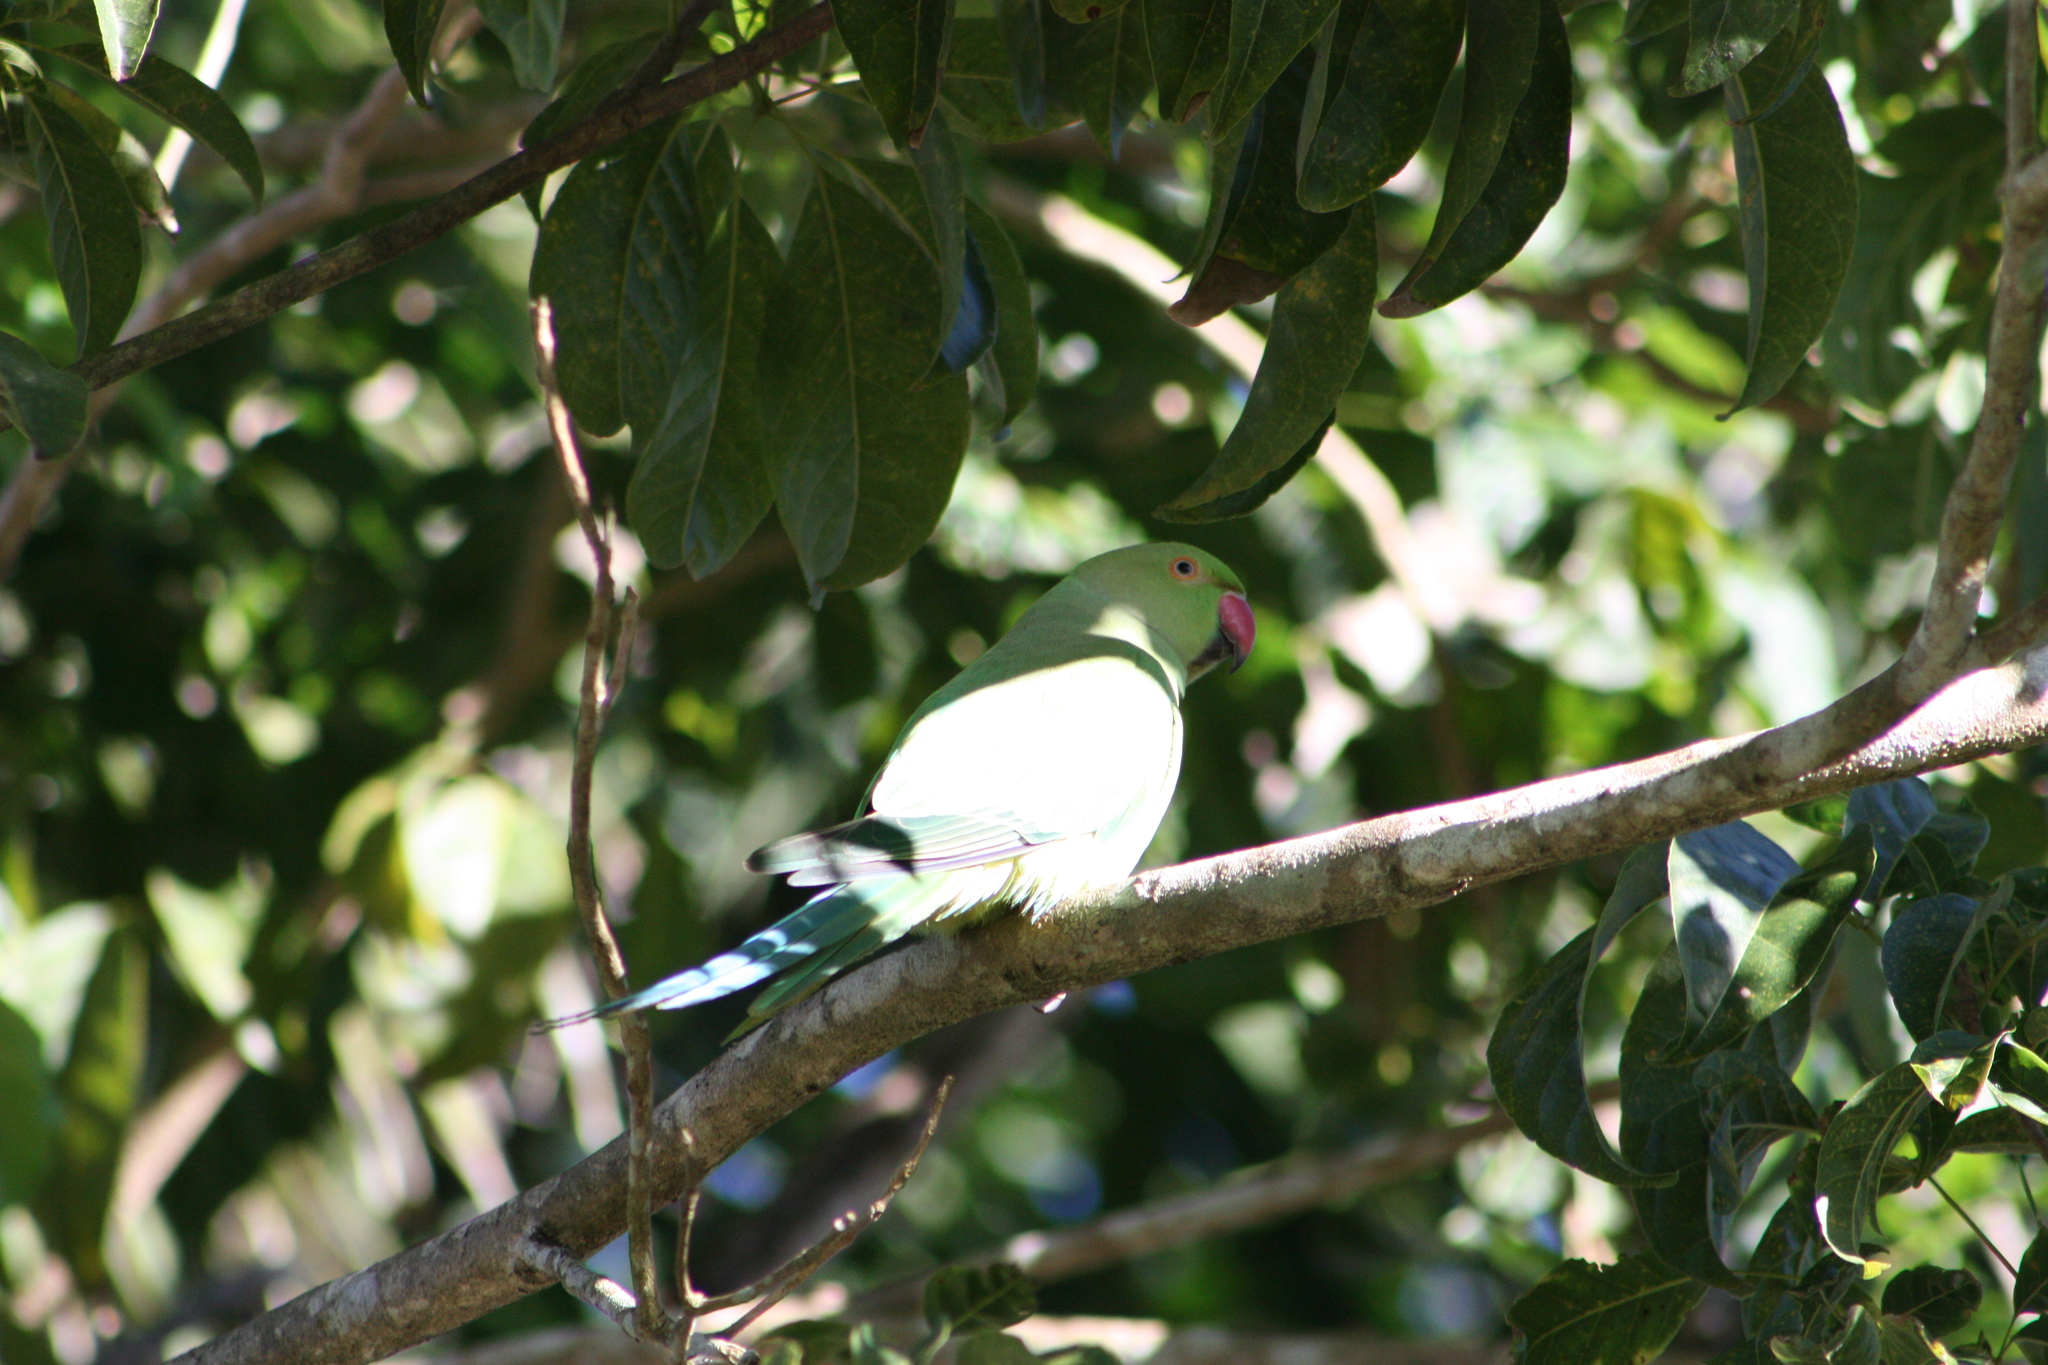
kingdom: Animalia
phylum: Chordata
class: Aves
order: Psittaciformes
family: Psittacidae
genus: Psittacula
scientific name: Psittacula krameri
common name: Rose-ringed parakeet
